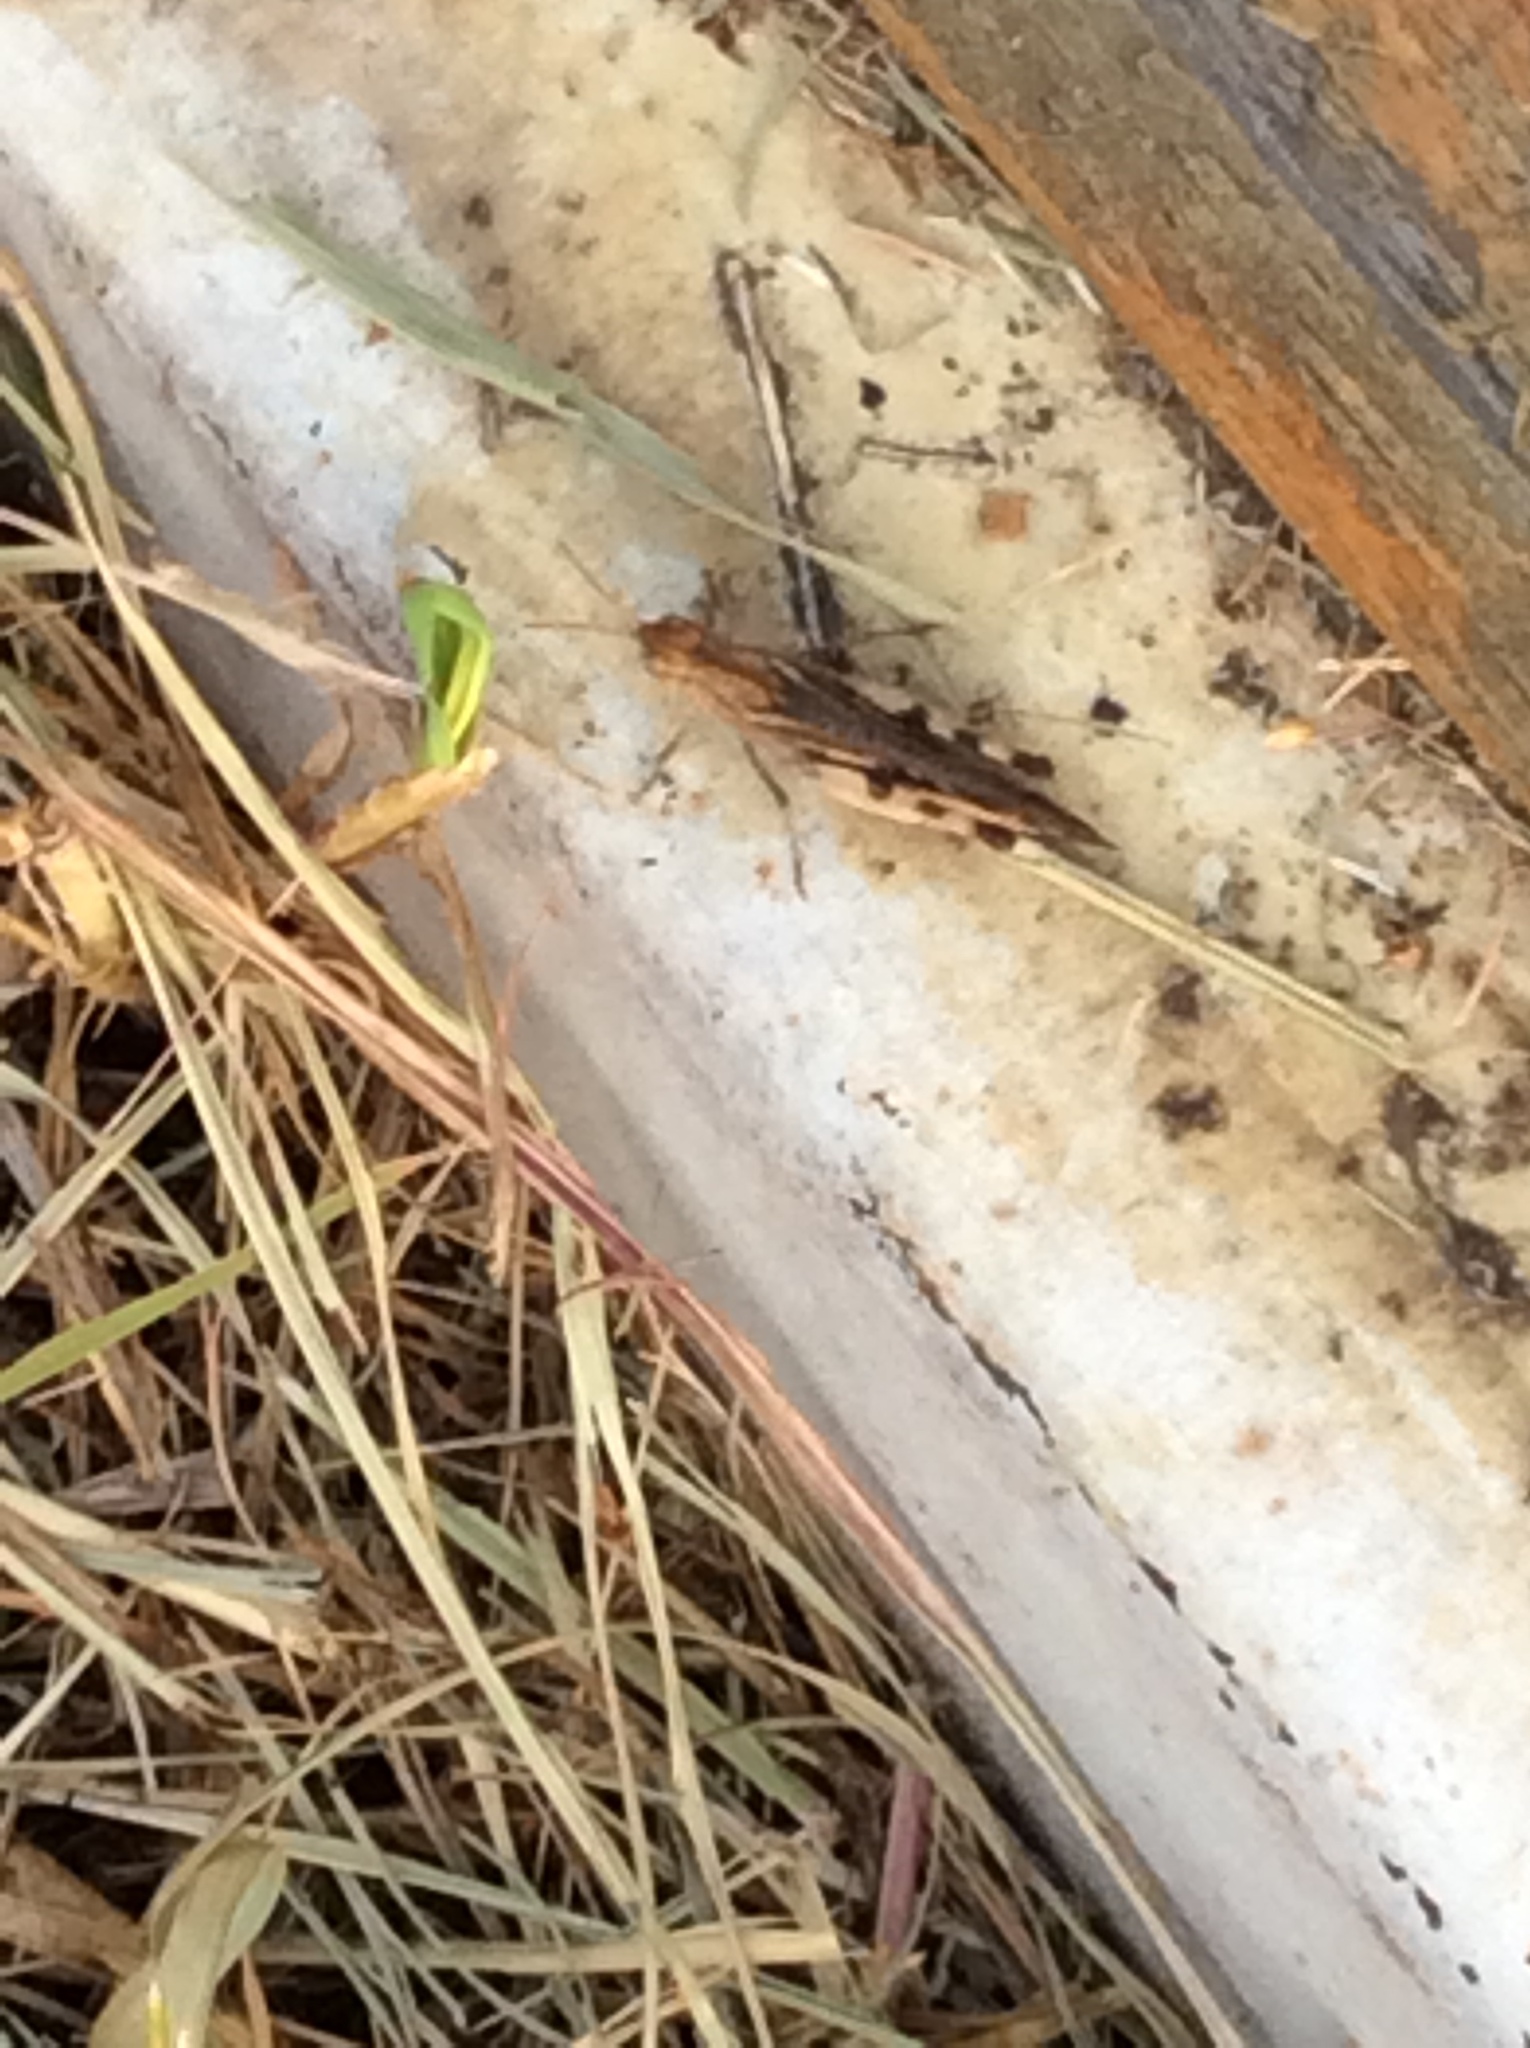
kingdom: Animalia
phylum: Arthropoda
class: Insecta
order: Orthoptera
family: Acrididae
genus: Chortophaga
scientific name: Chortophaga viridifasciata
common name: Green-striped grasshopper
